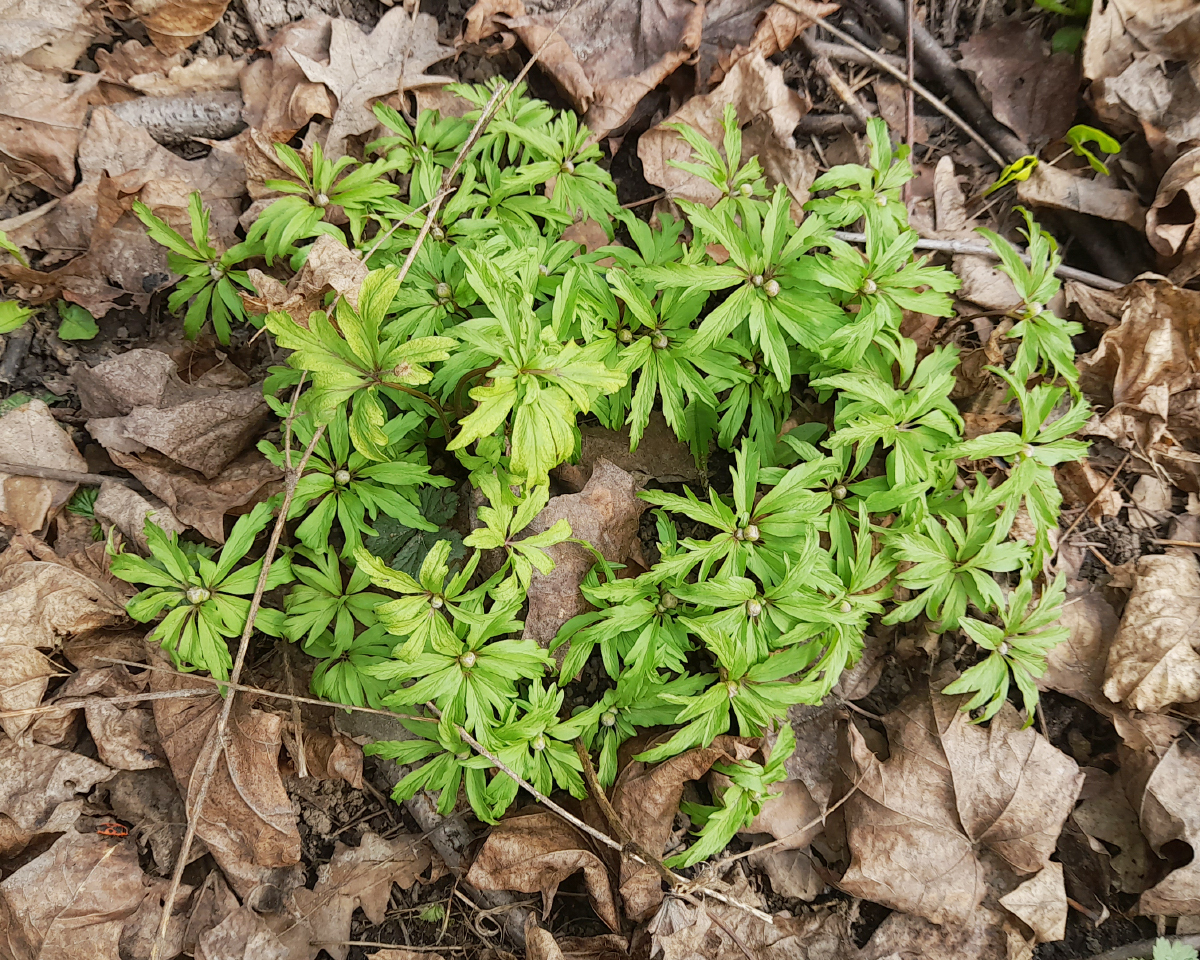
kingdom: Plantae
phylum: Tracheophyta
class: Magnoliopsida
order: Ranunculales
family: Ranunculaceae
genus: Anemone
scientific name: Anemone ranunculoides
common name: Yellow anemone
